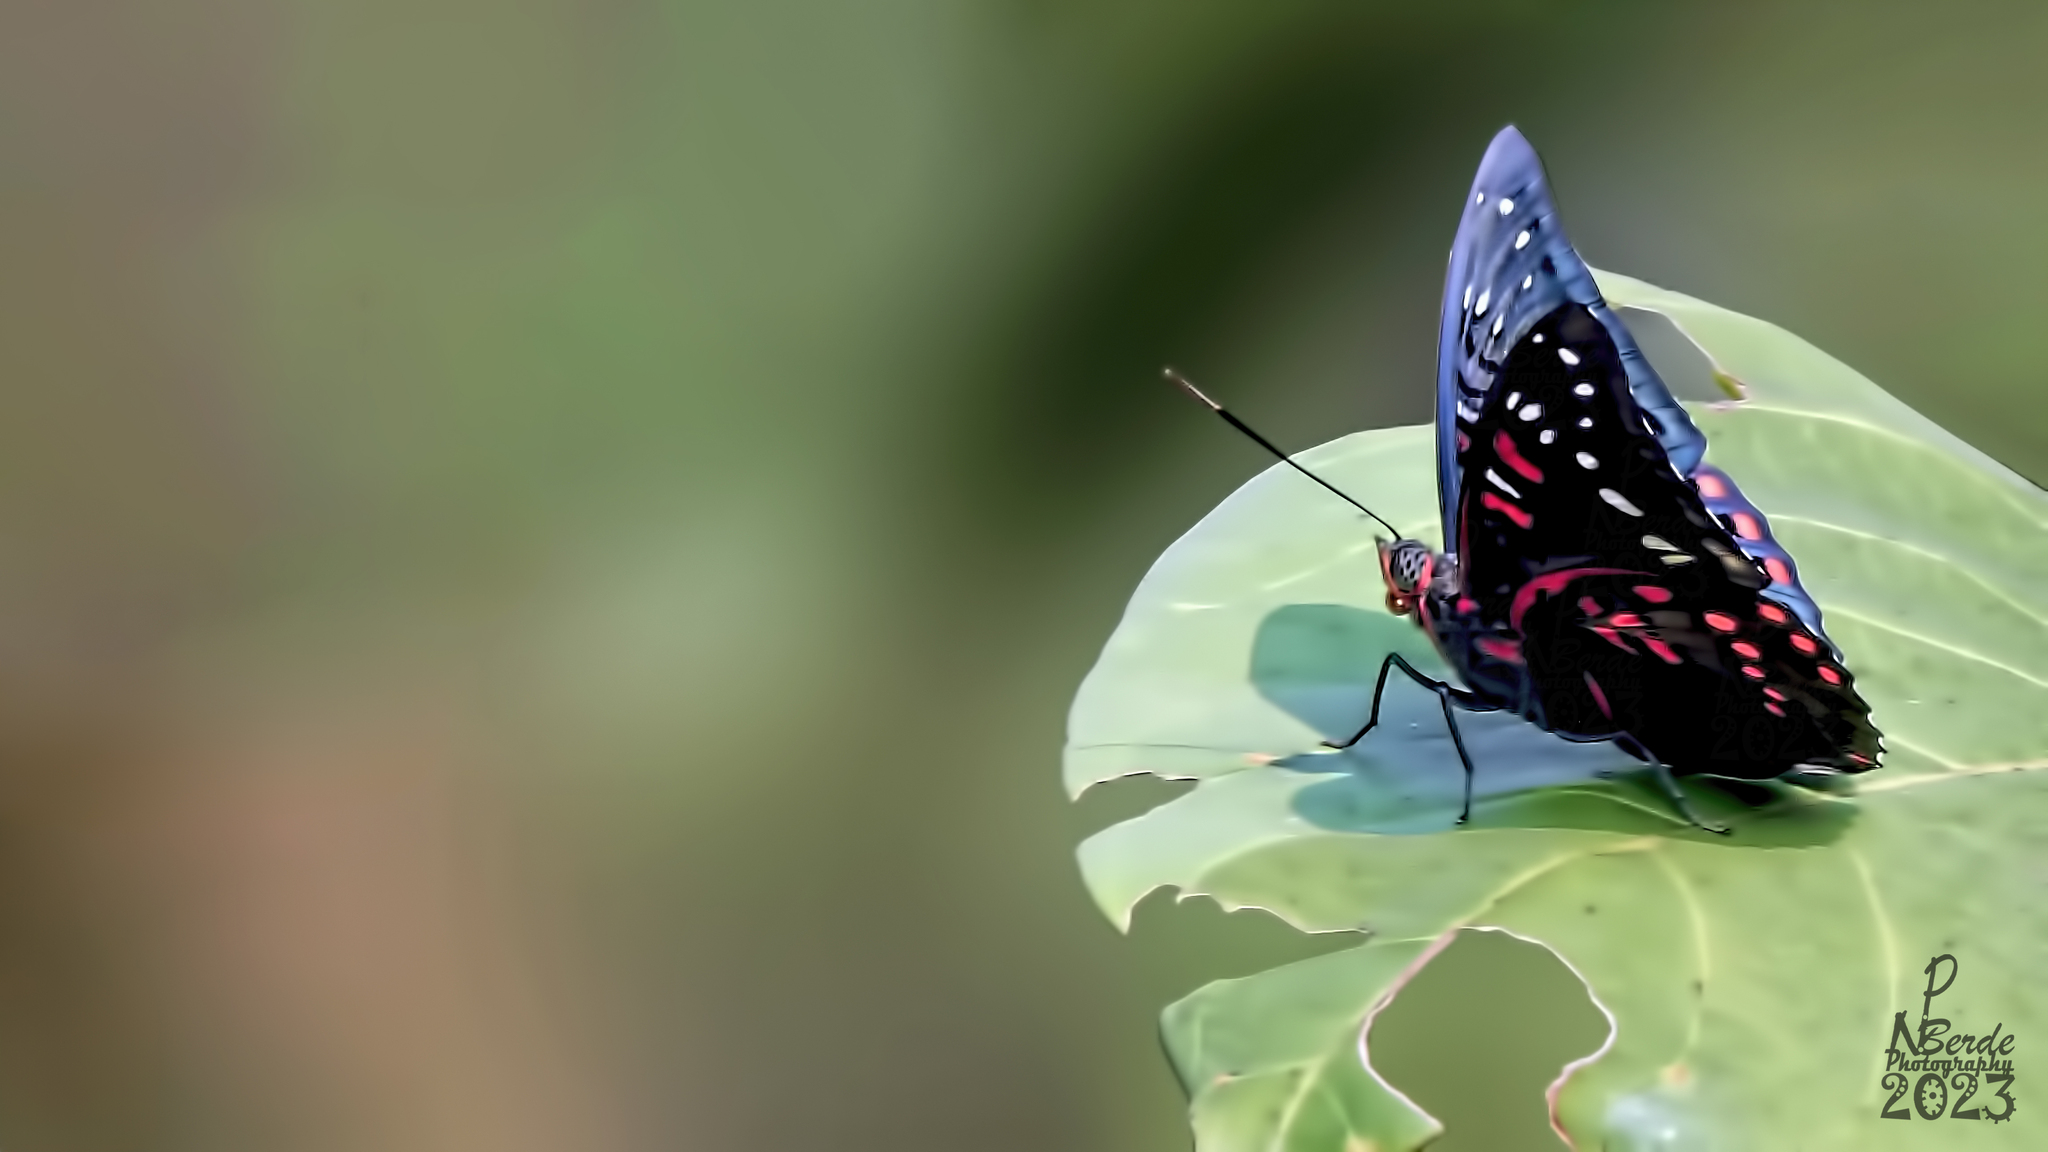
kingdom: Animalia
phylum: Arthropoda
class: Insecta
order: Lepidoptera
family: Nymphalidae
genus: Euthalia
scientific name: Euthalia lubentina
